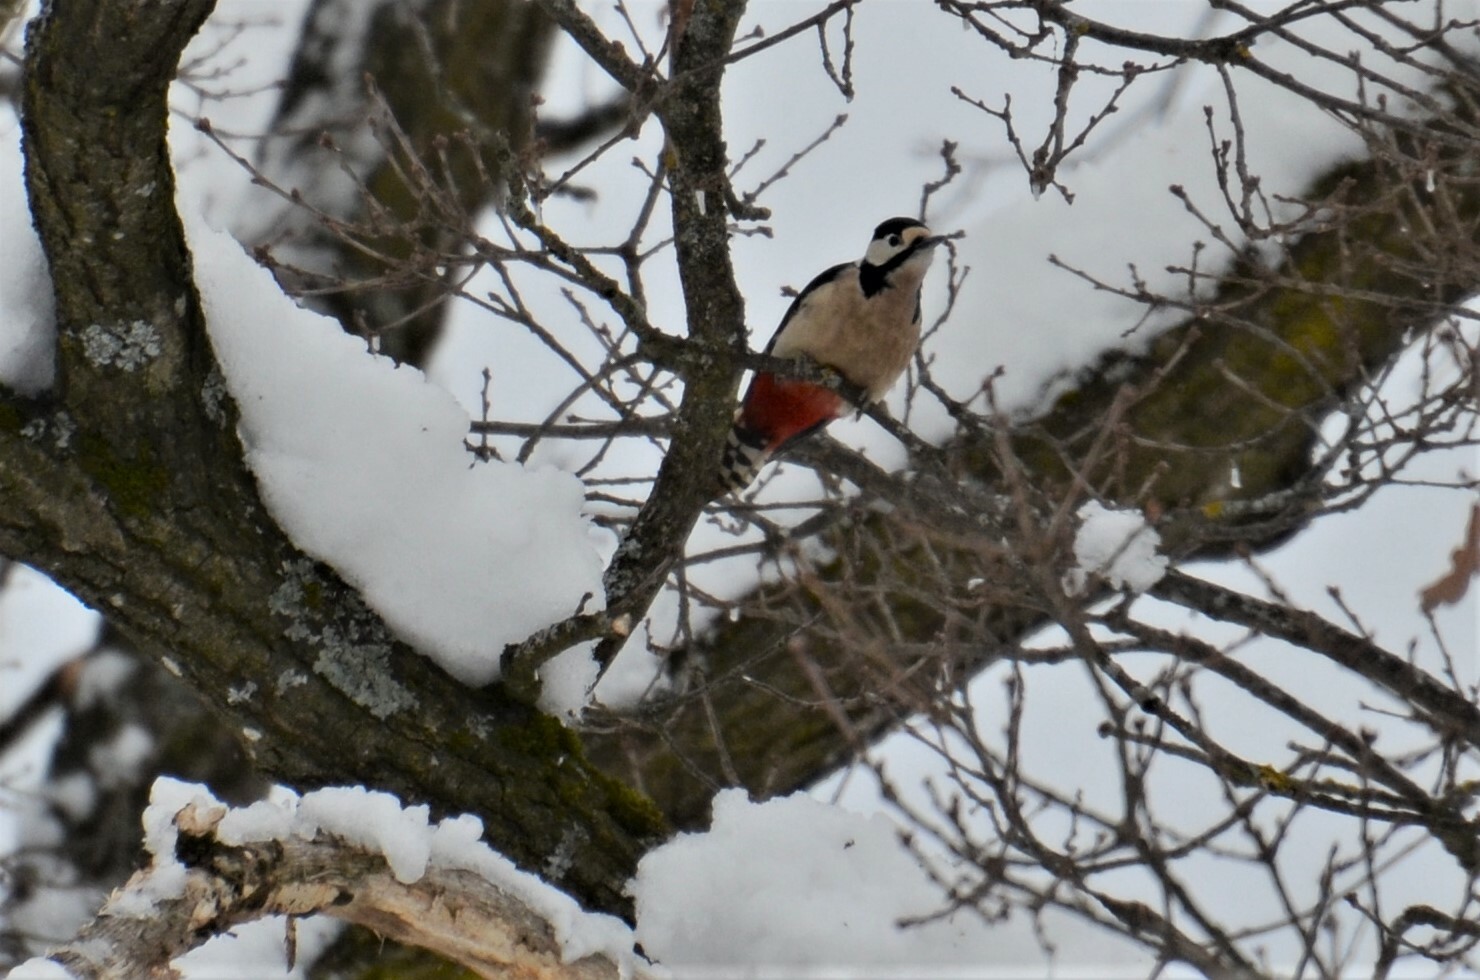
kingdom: Animalia
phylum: Chordata
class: Aves
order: Piciformes
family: Picidae
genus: Dendrocopos
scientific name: Dendrocopos major
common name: Great spotted woodpecker
